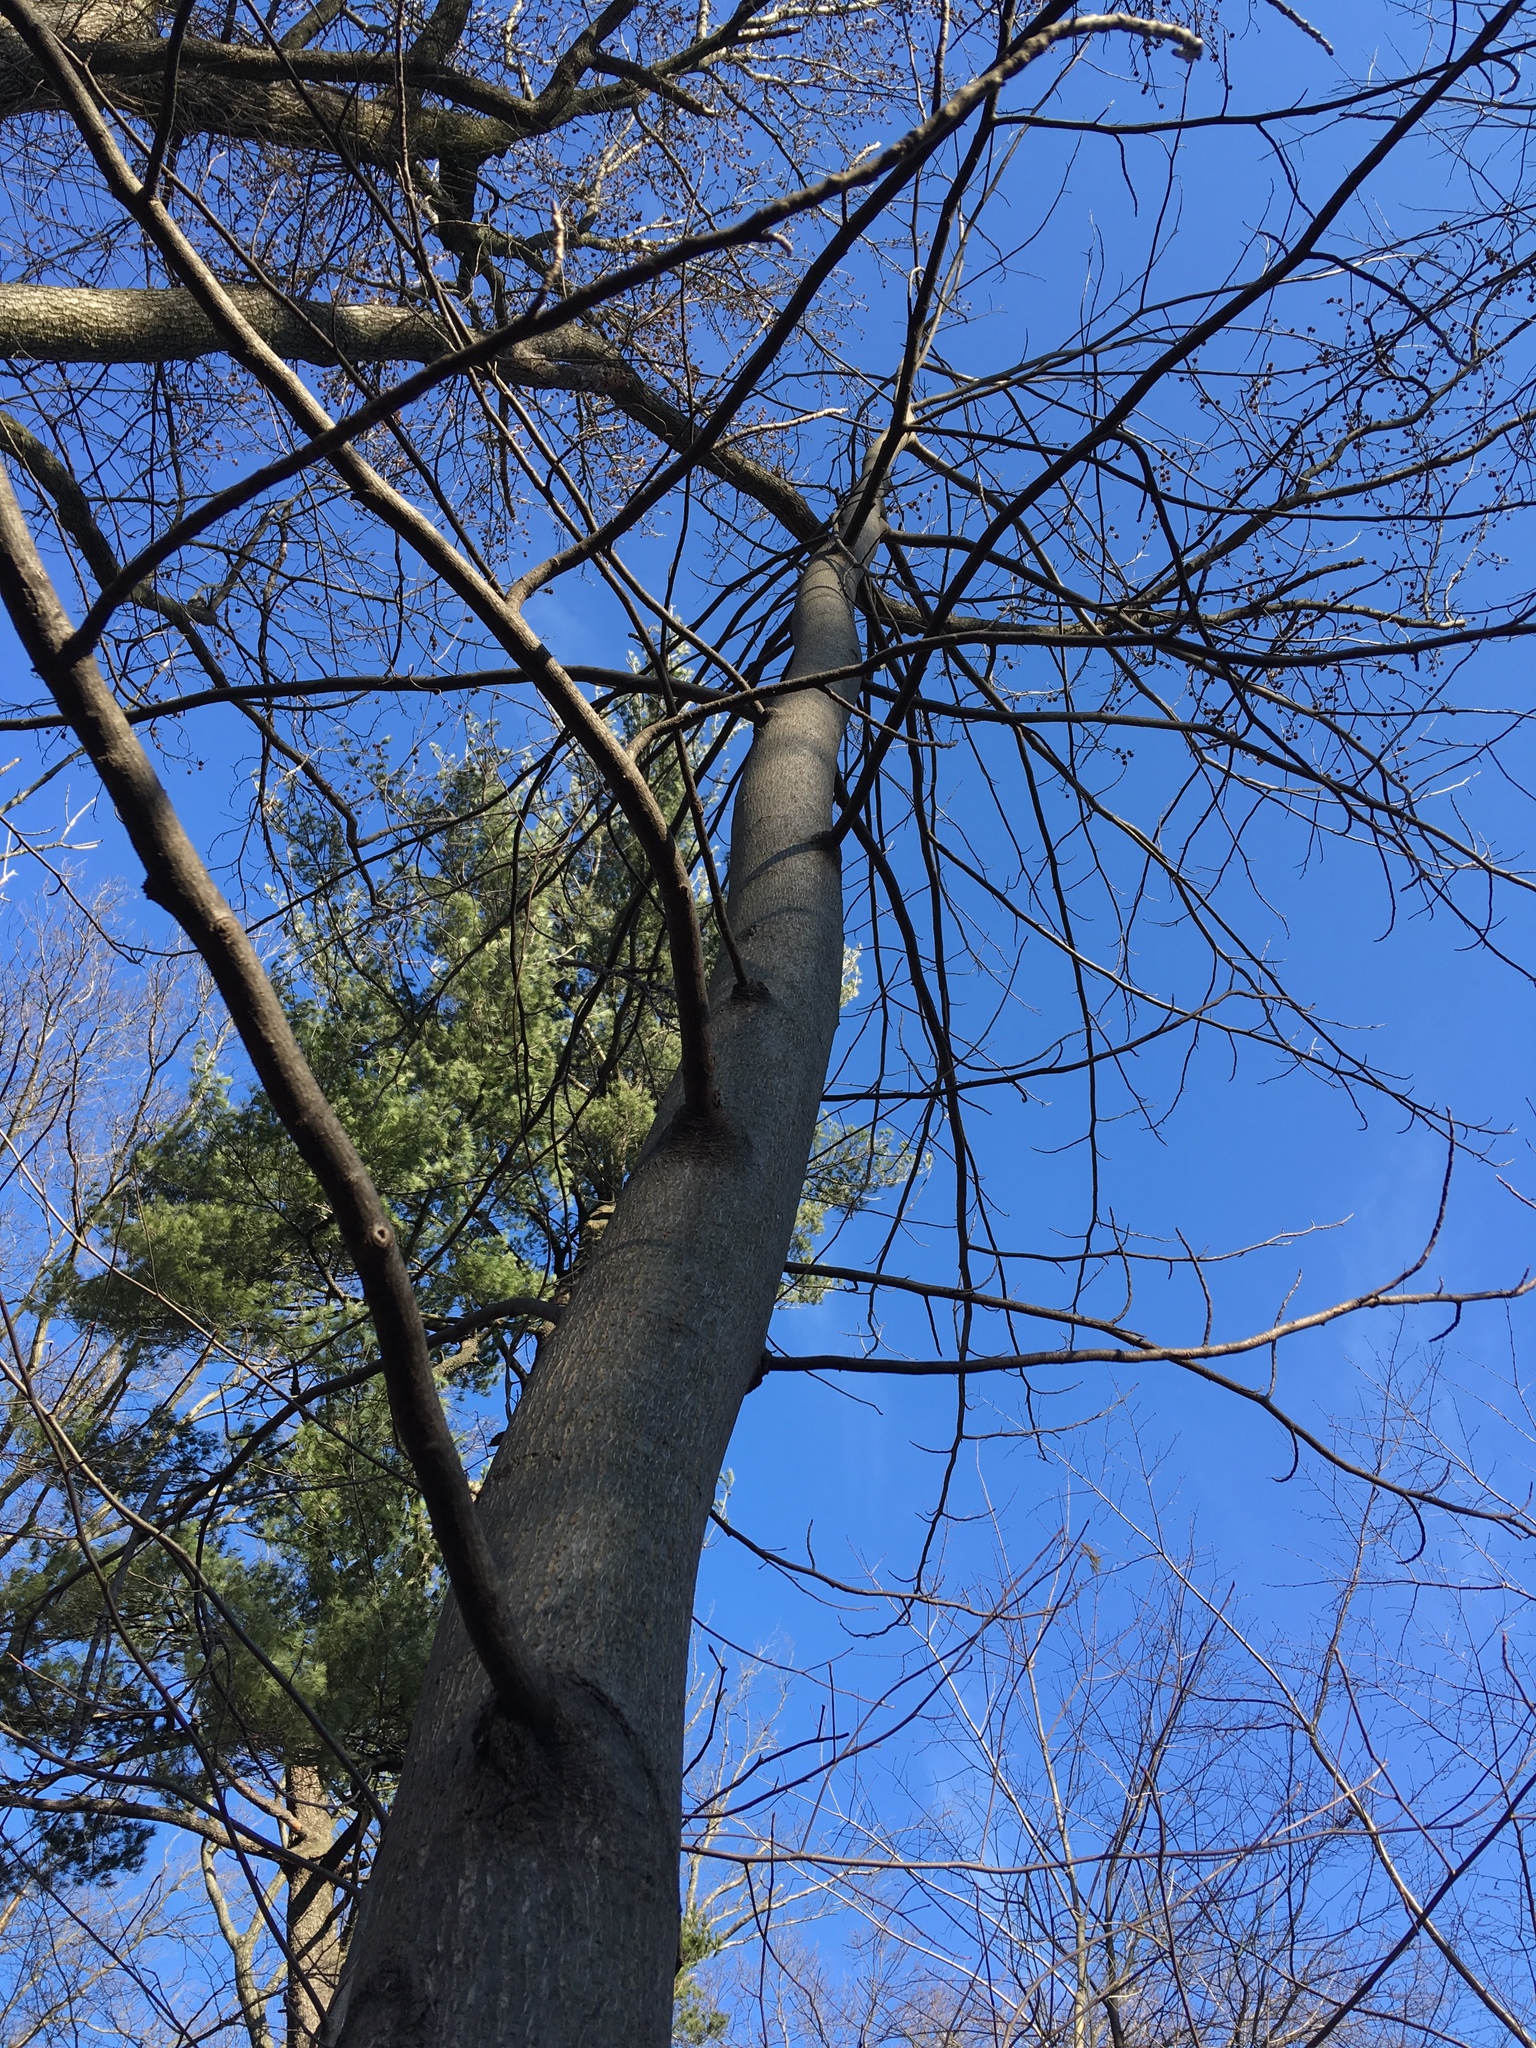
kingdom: Plantae
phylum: Tracheophyta
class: Magnoliopsida
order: Magnoliales
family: Magnoliaceae
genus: Magnolia
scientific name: Magnolia tripetala
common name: Umbrella magnolia
